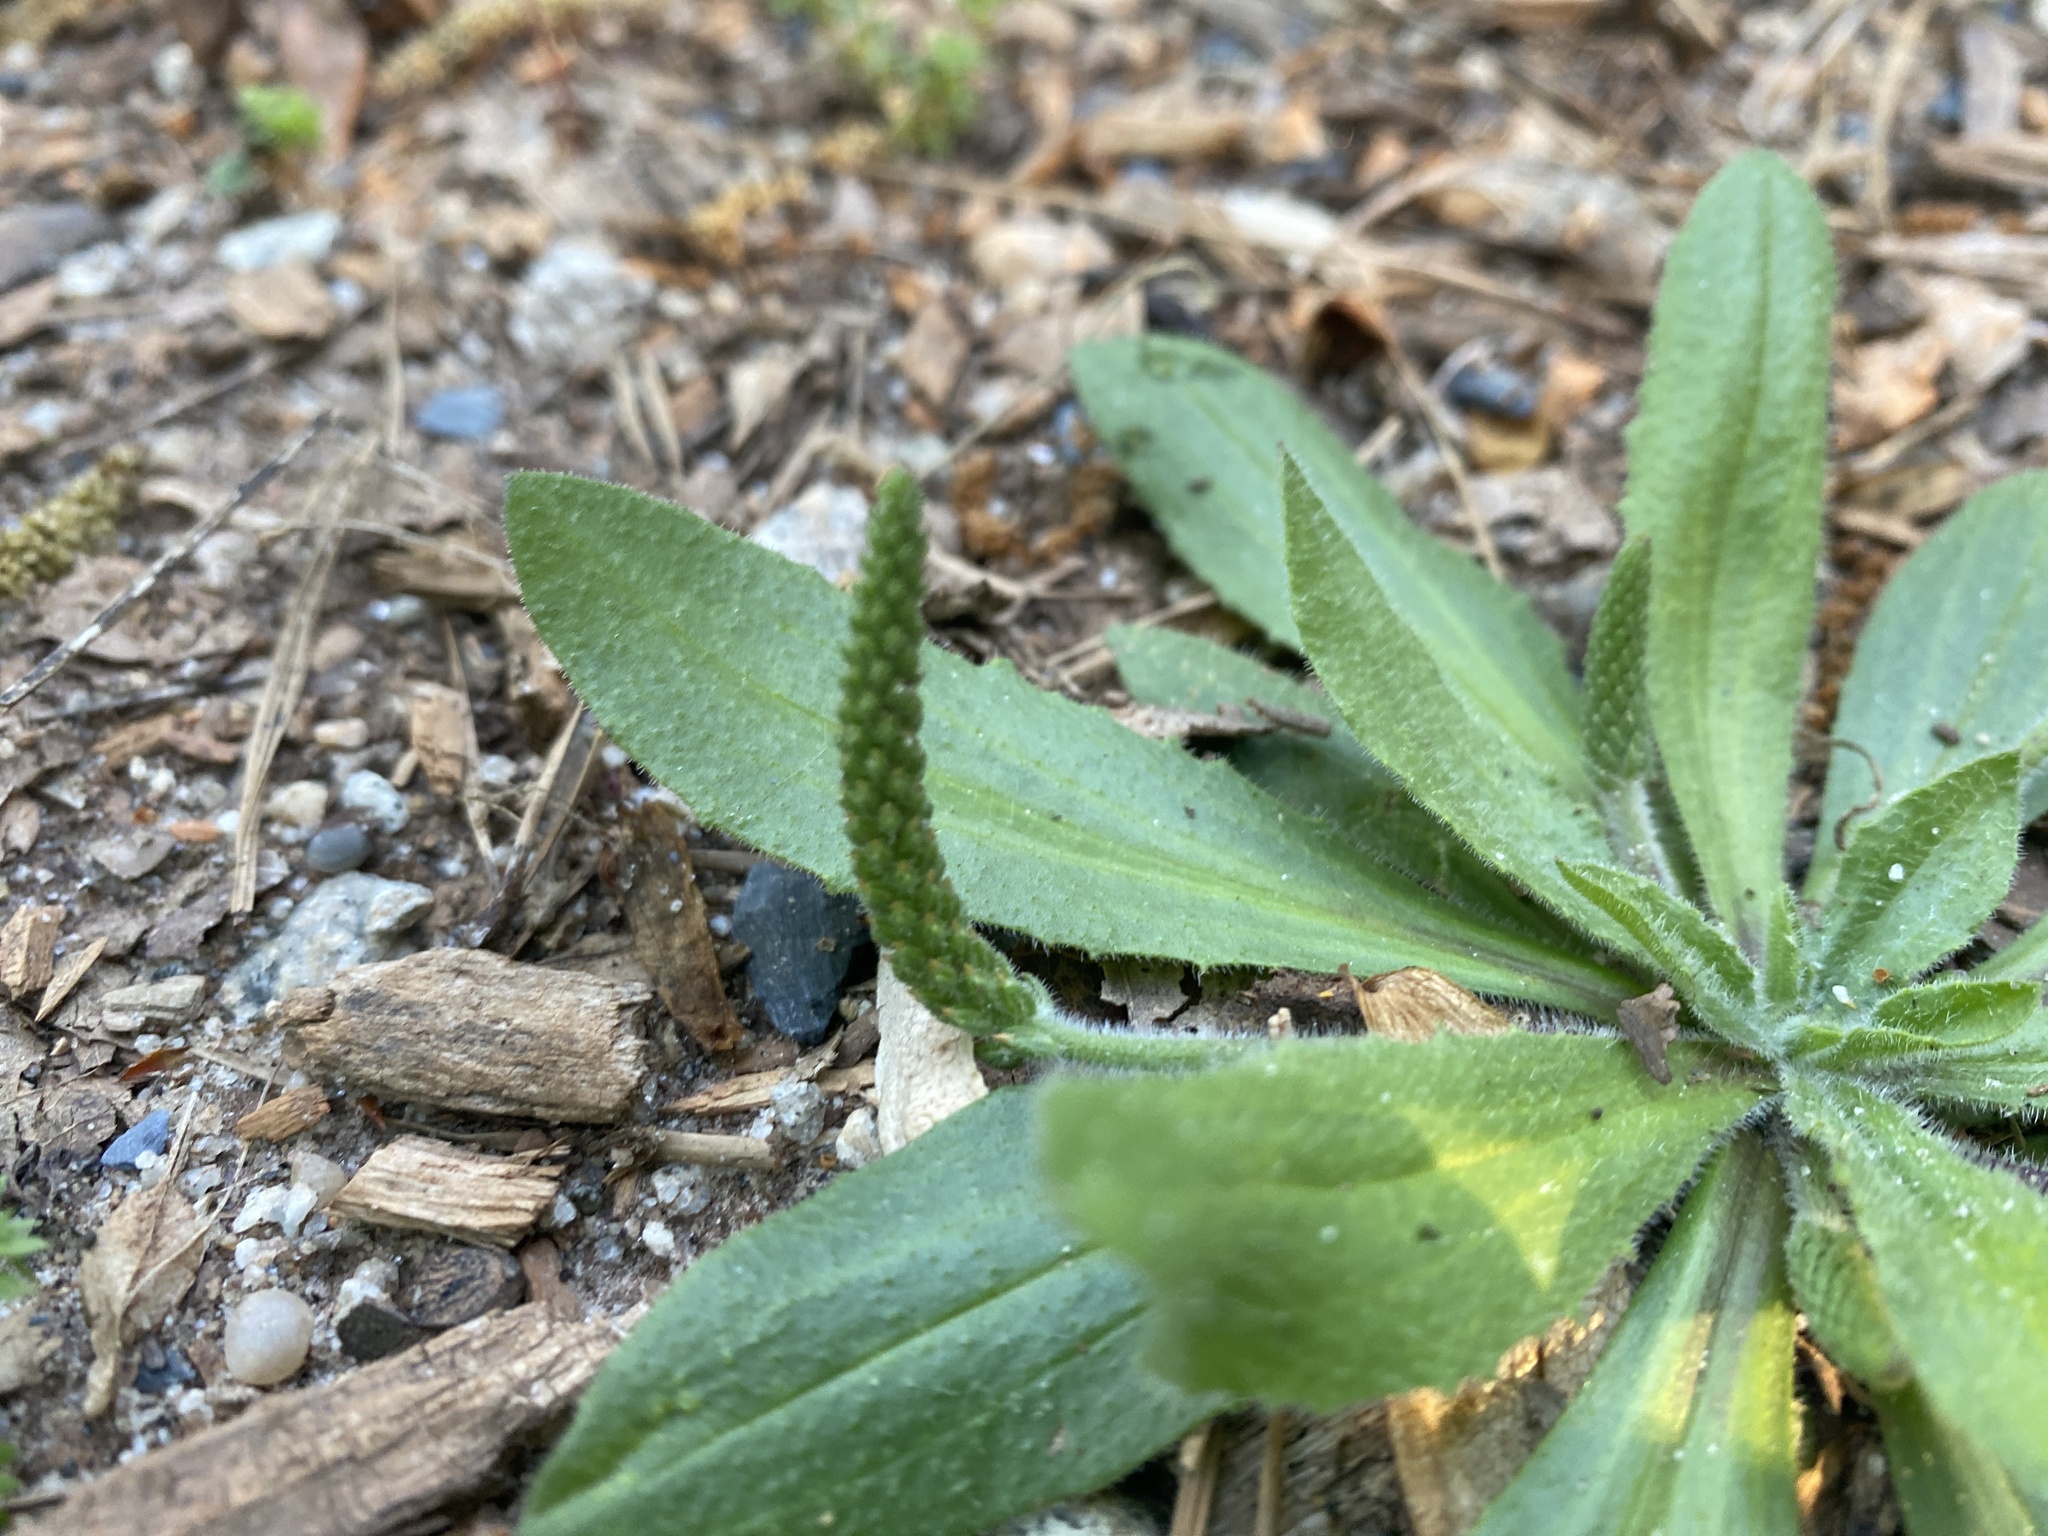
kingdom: Plantae
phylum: Tracheophyta
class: Magnoliopsida
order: Lamiales
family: Plantaginaceae
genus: Plantago
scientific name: Plantago virginica
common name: Hoary plantain
